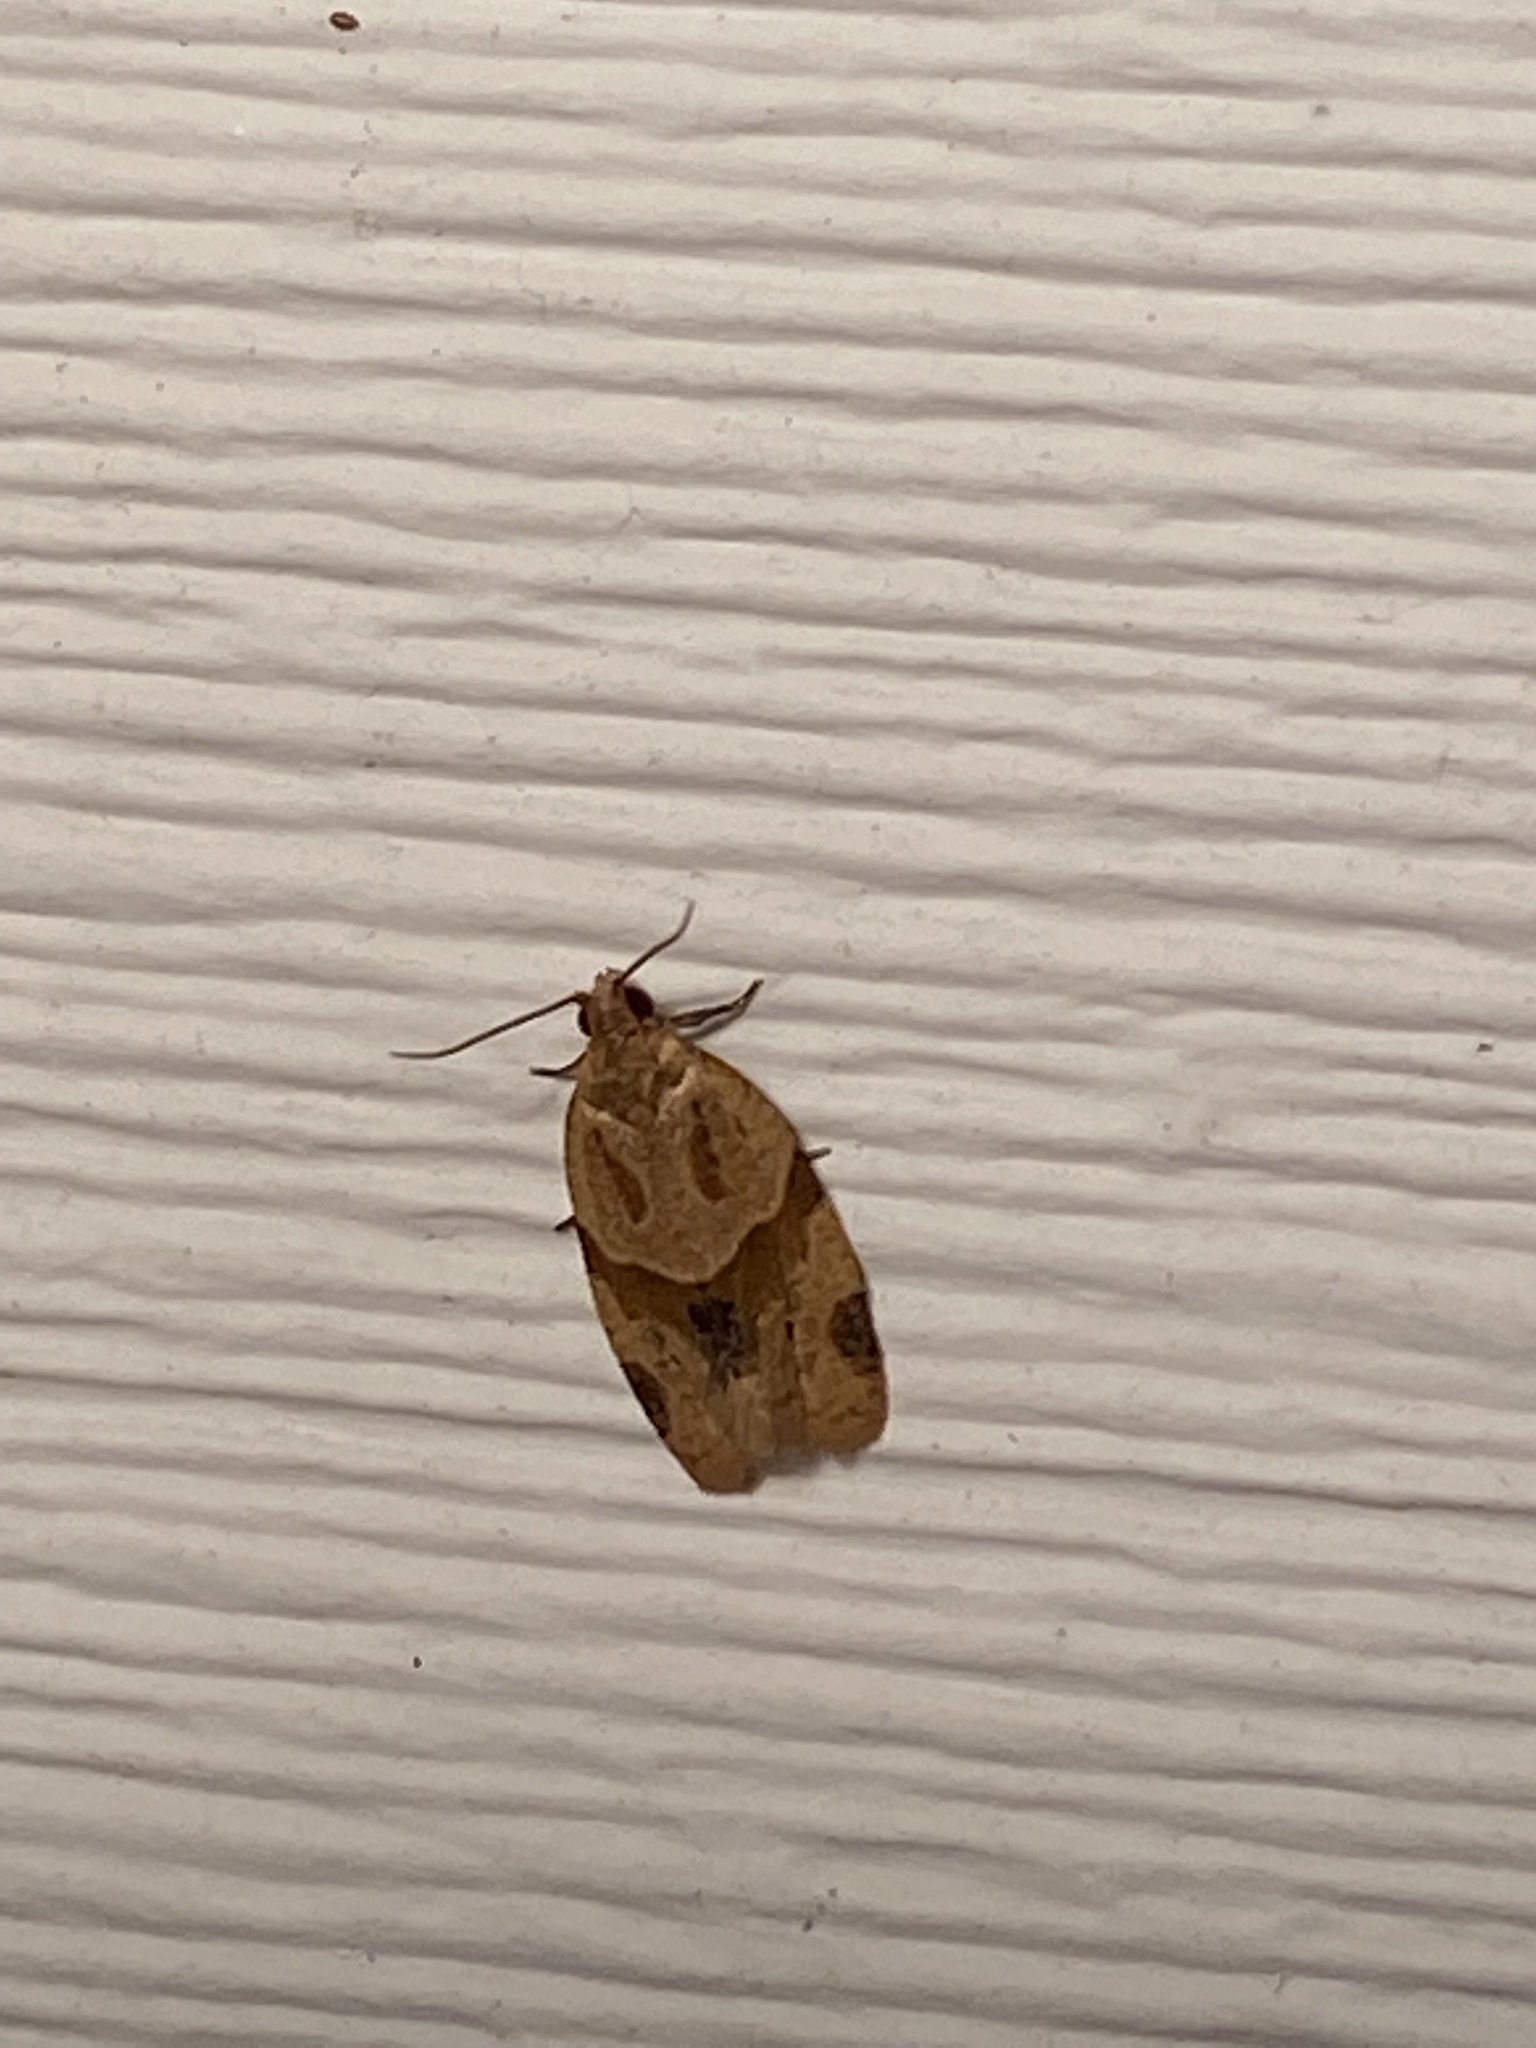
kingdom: Animalia
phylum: Arthropoda
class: Insecta
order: Lepidoptera
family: Tortricidae
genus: Clepsis
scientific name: Clepsis peritana
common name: Garden tortrix
